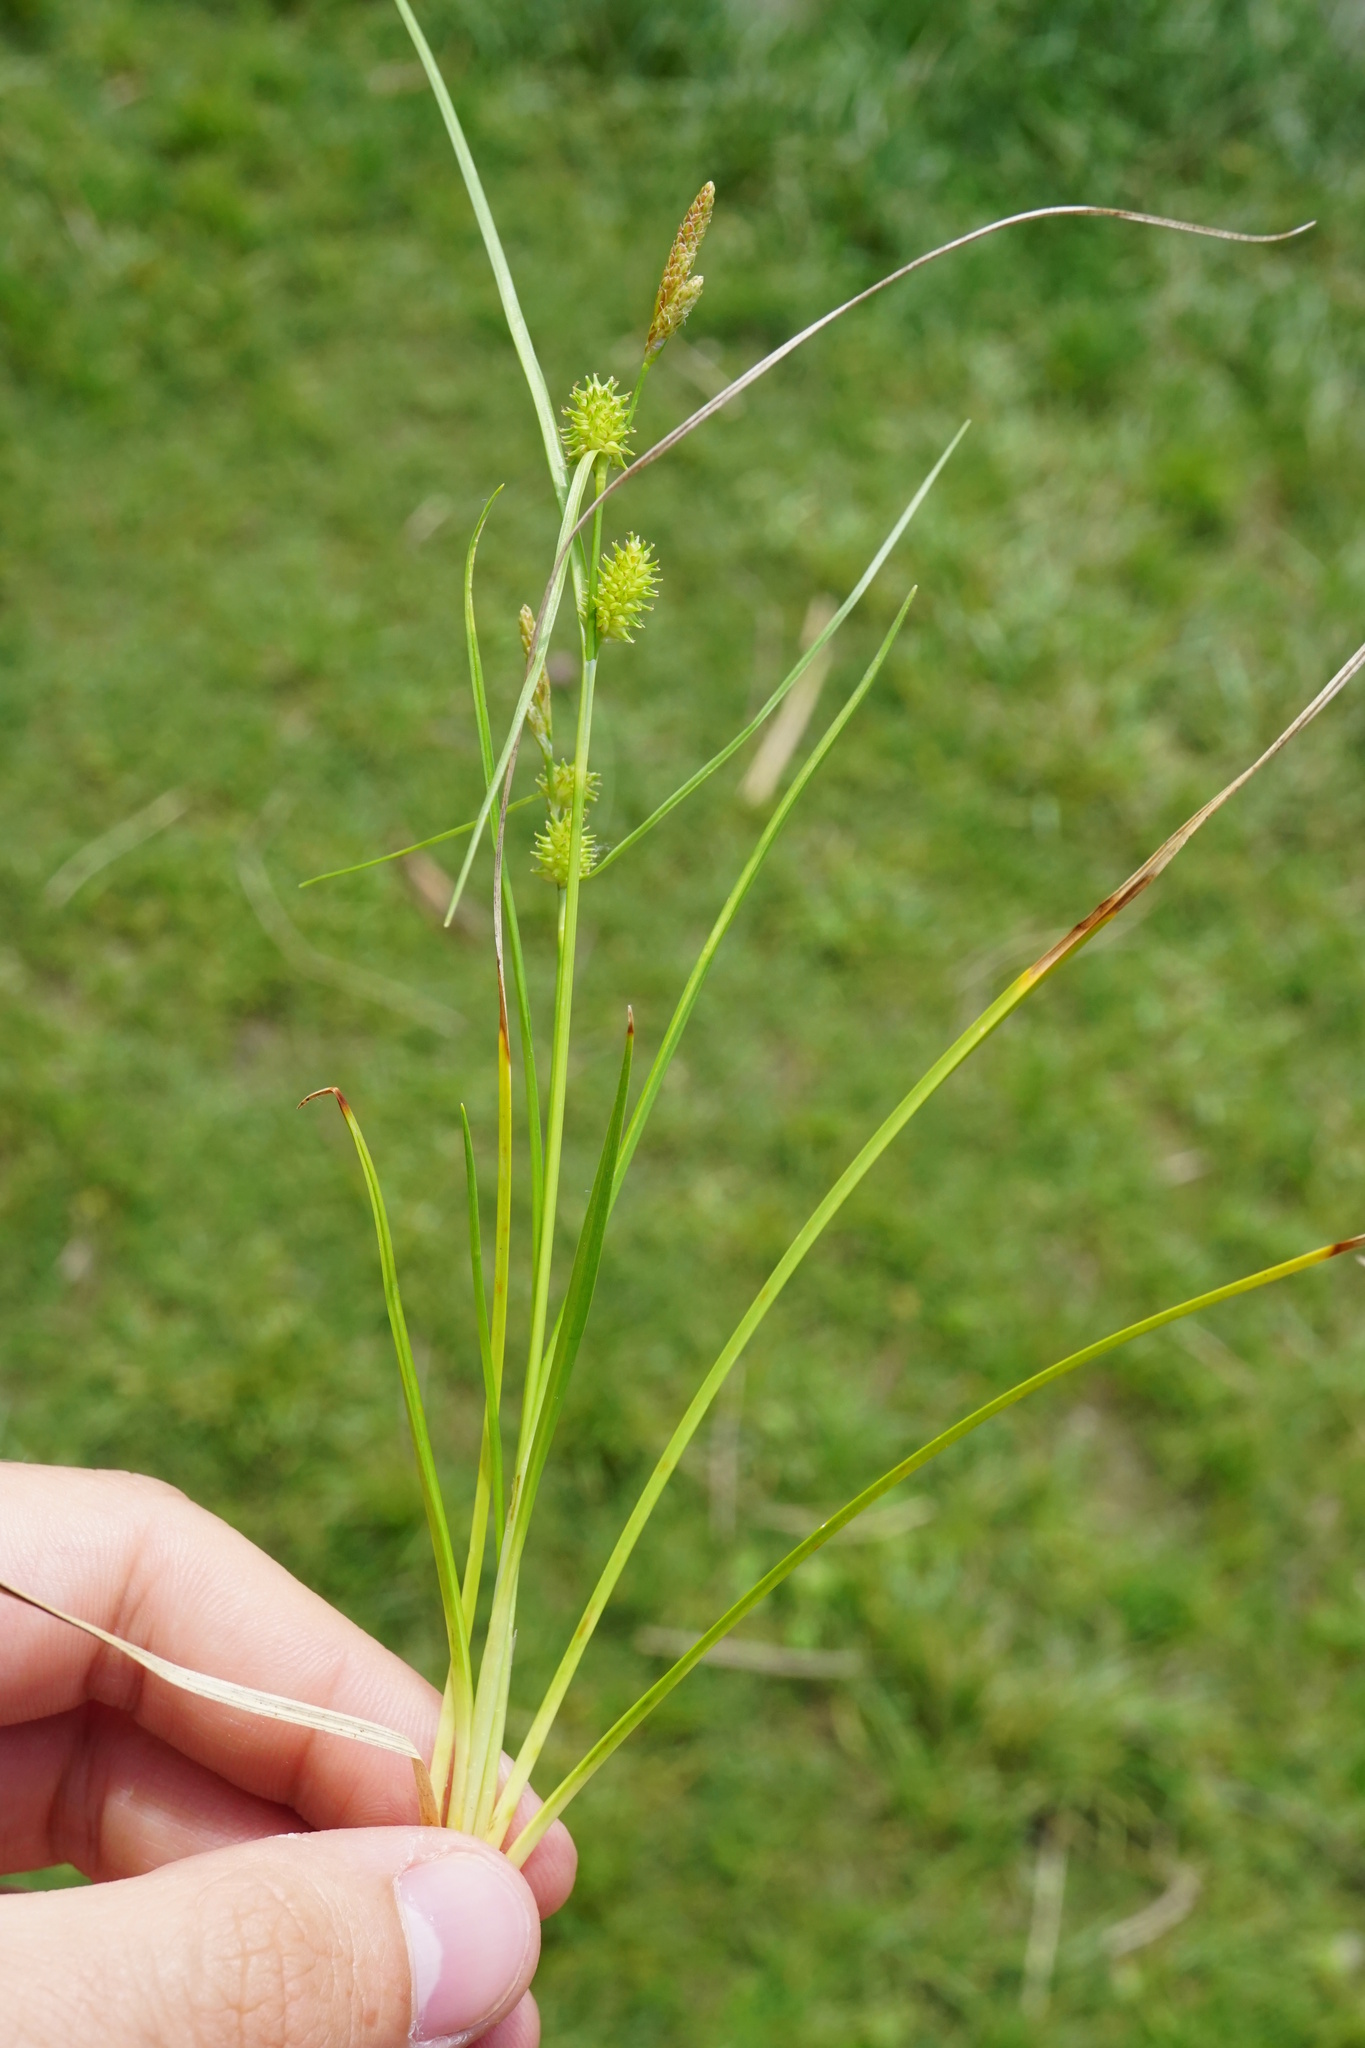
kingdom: Plantae
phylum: Tracheophyta
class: Liliopsida
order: Poales
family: Cyperaceae
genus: Carex
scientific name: Carex oederi
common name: Common & small-fruited yellow-sedge
